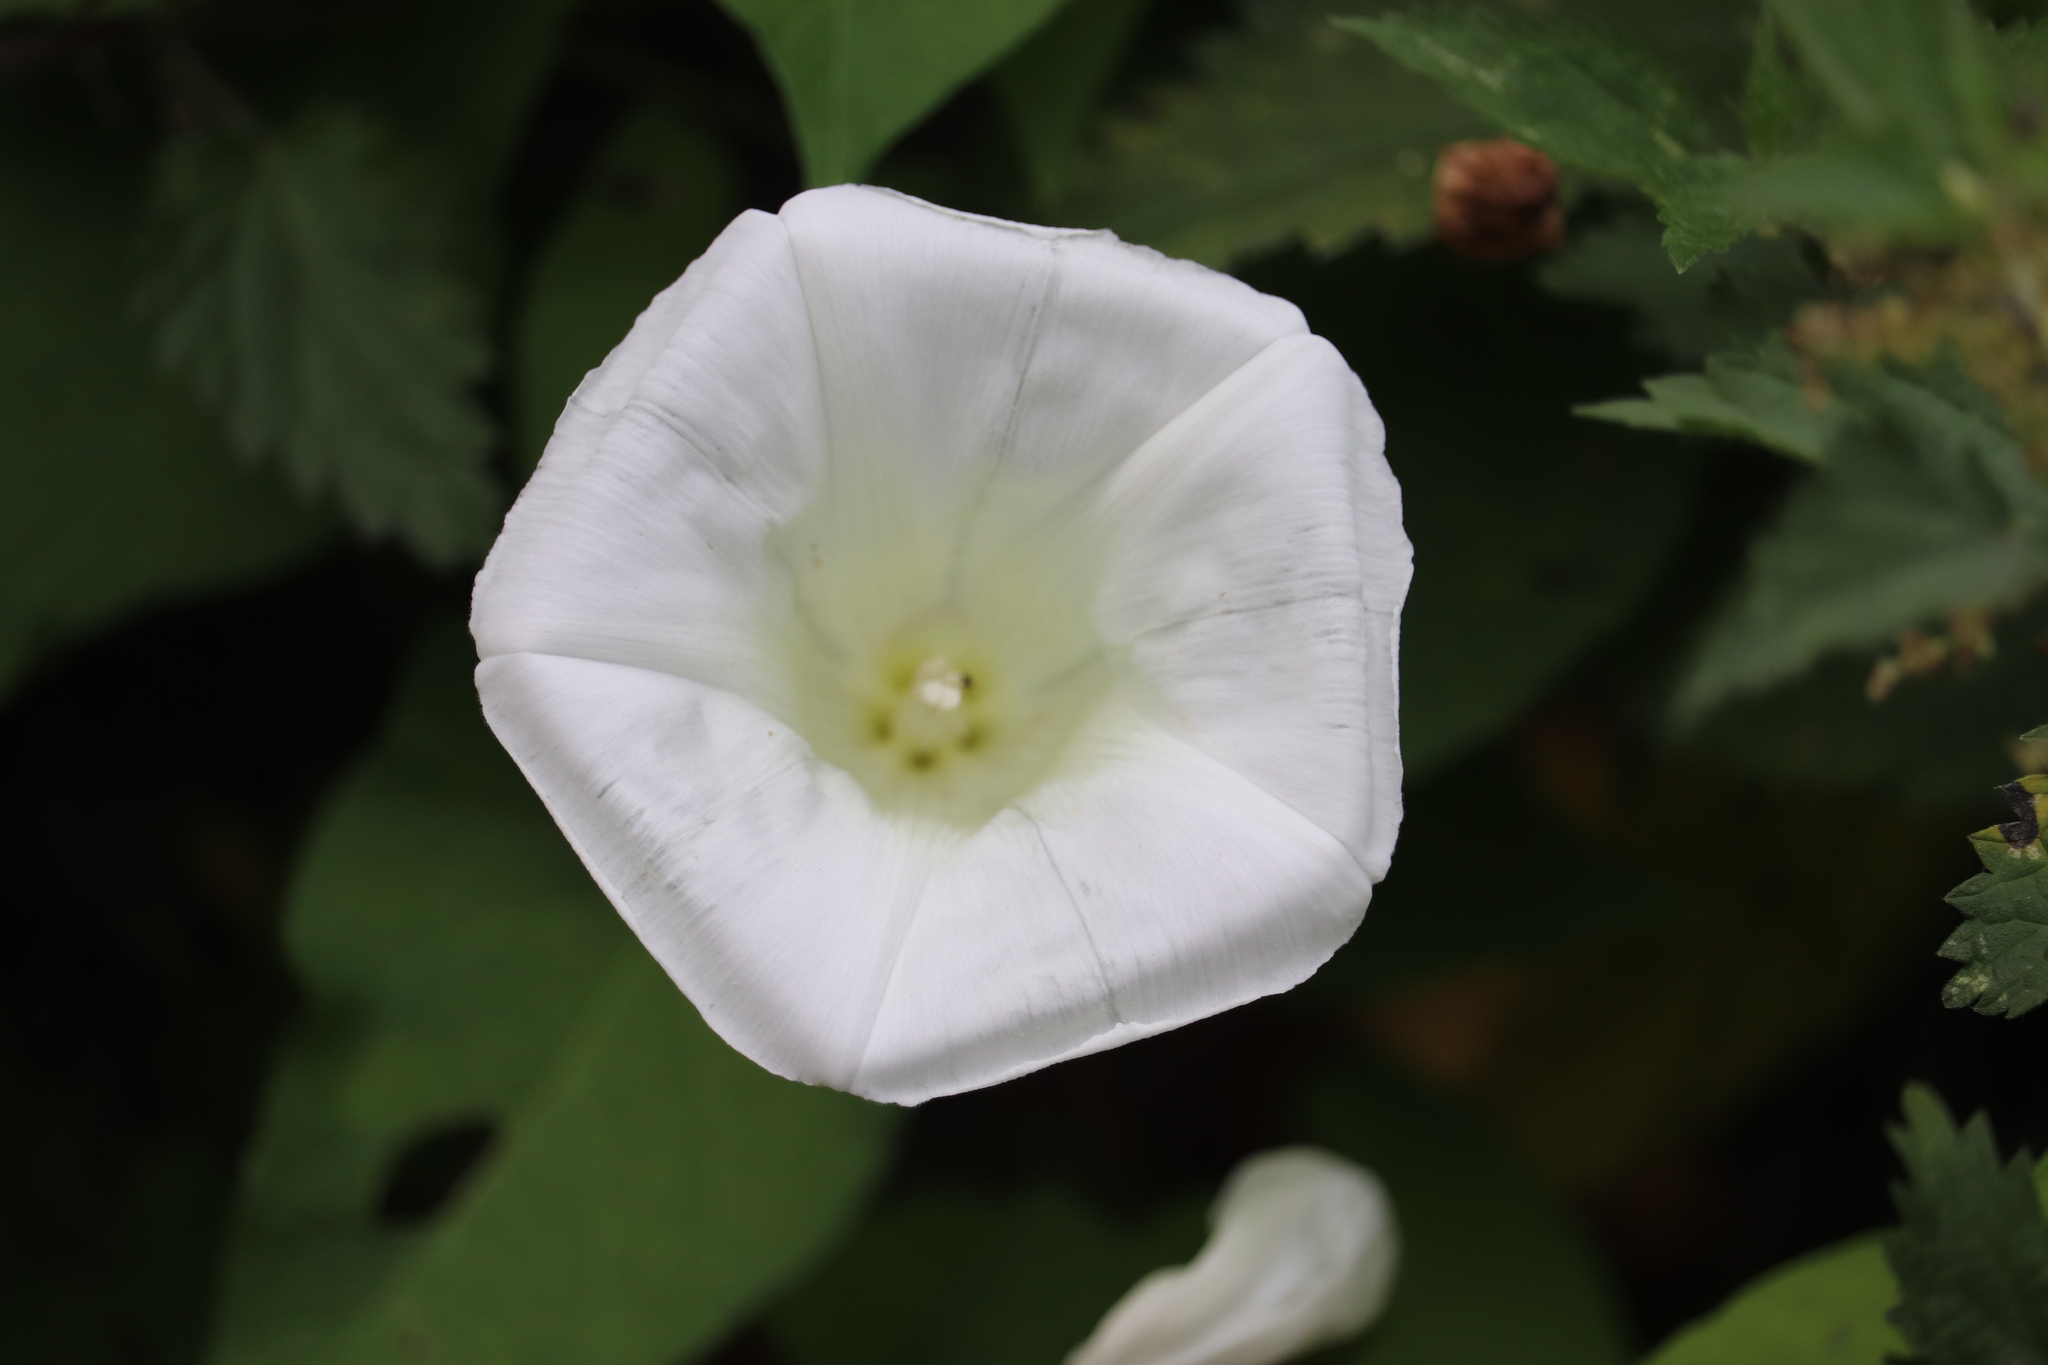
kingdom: Plantae
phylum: Tracheophyta
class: Magnoliopsida
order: Solanales
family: Convolvulaceae
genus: Calystegia
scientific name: Calystegia
